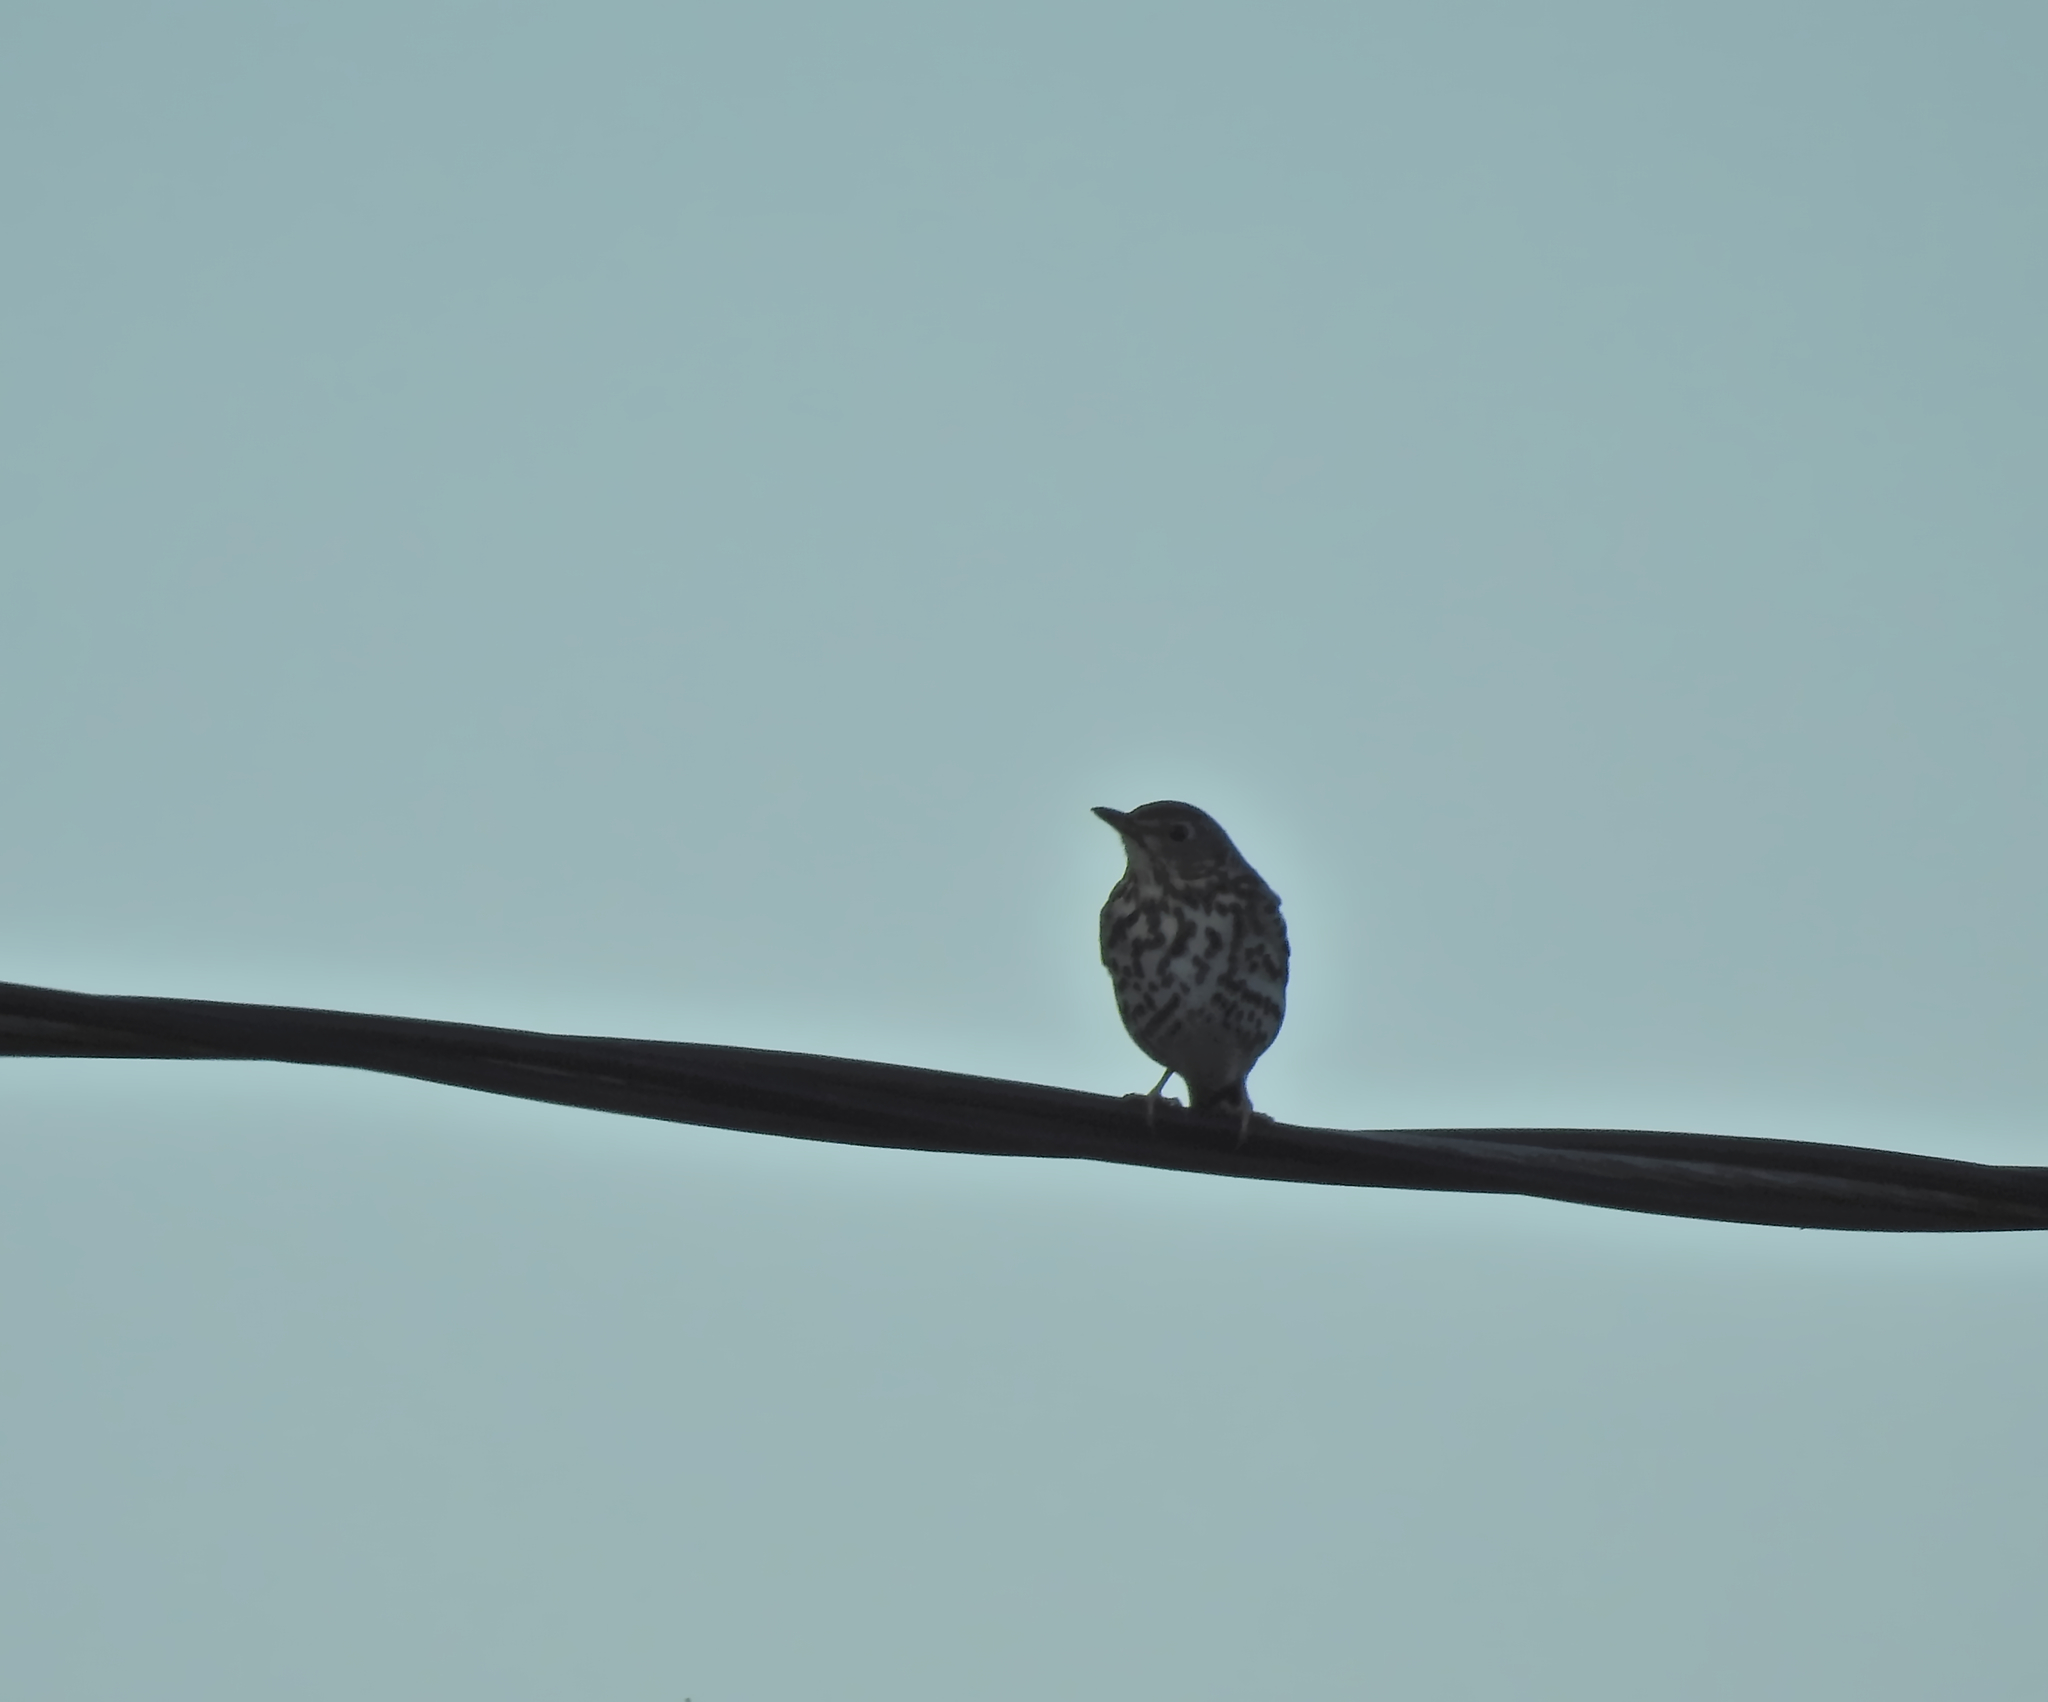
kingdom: Animalia
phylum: Chordata
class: Aves
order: Passeriformes
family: Turdidae
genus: Turdus
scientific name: Turdus philomelos
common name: Song thrush
